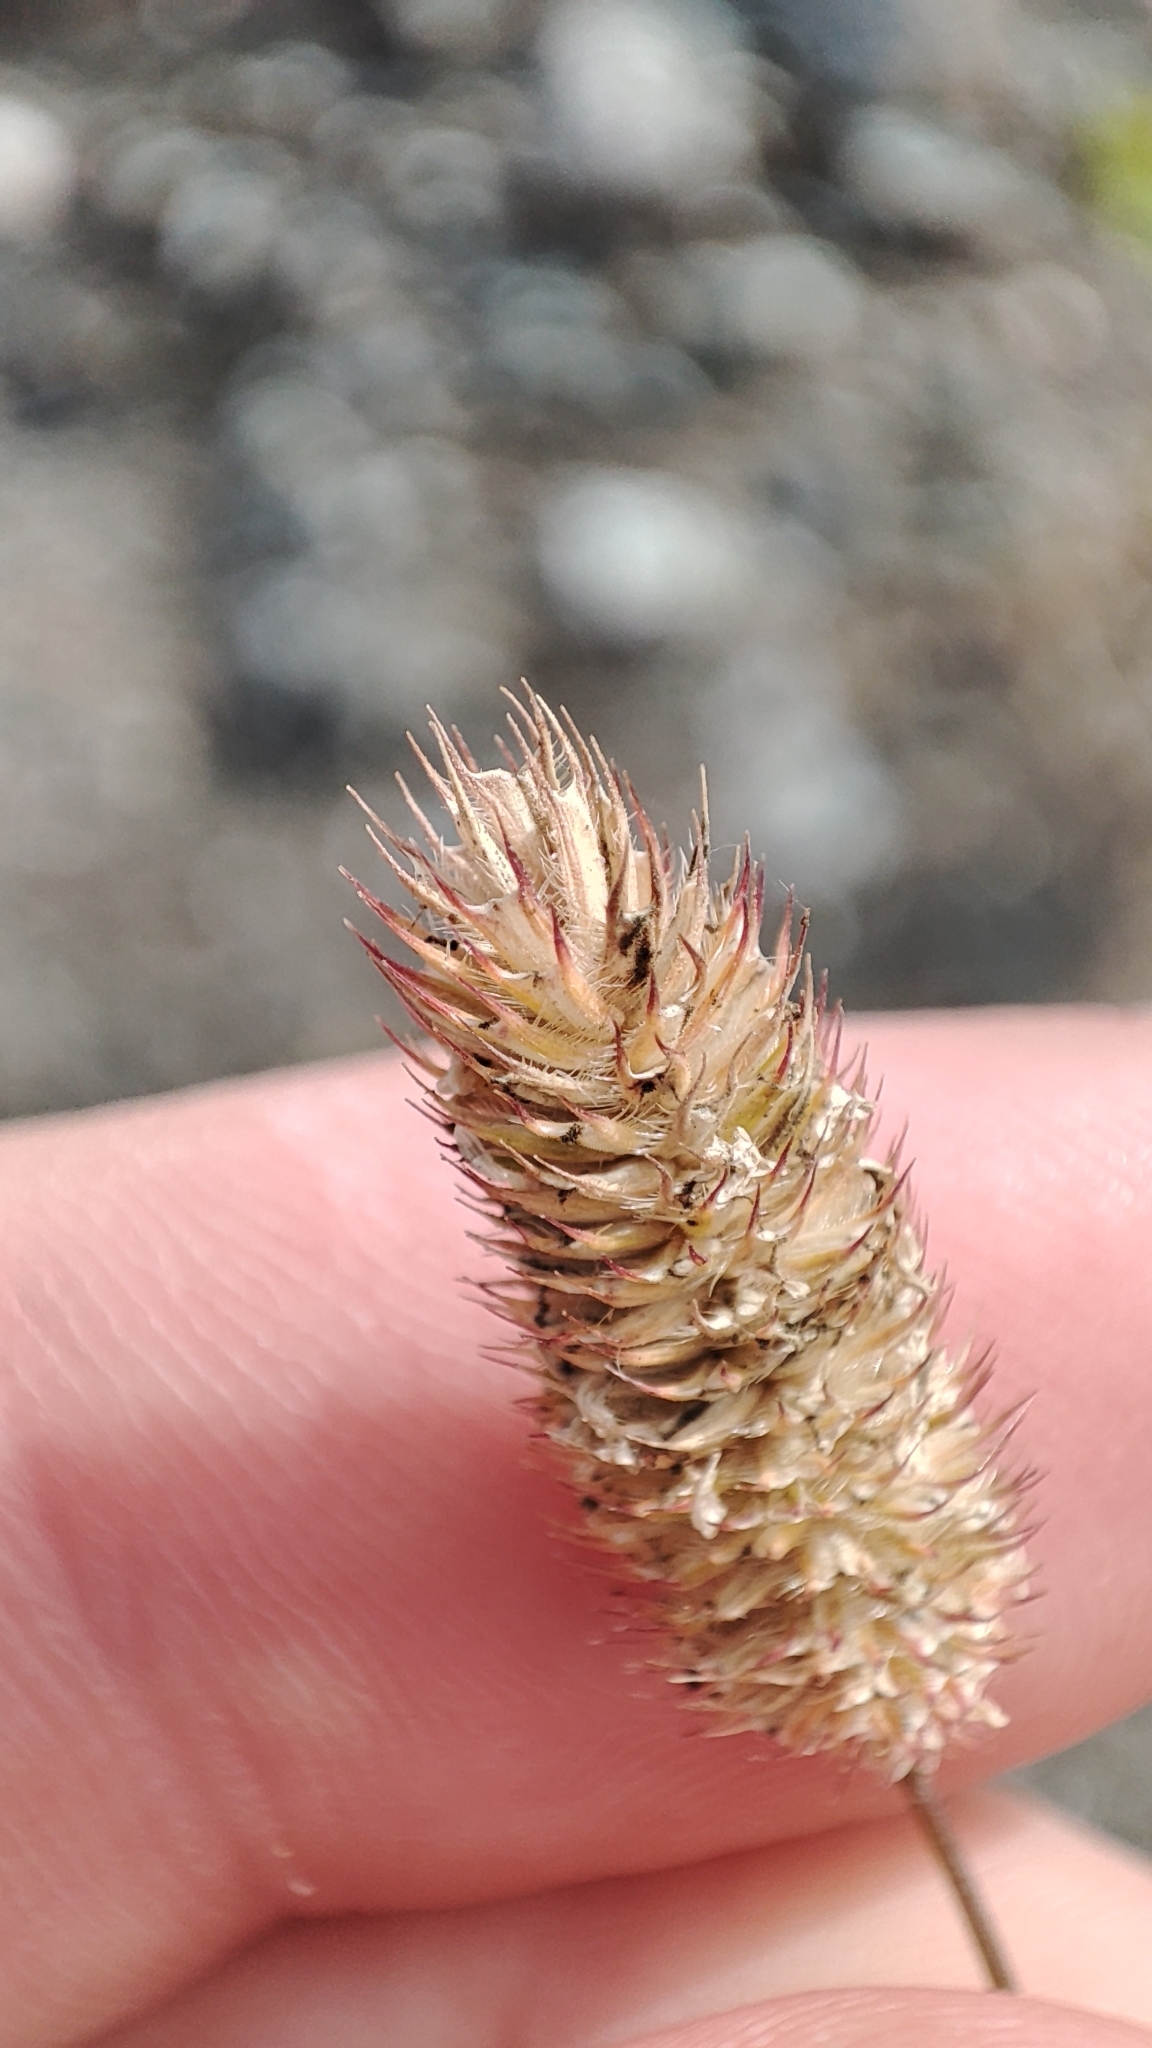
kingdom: Plantae
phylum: Tracheophyta
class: Liliopsida
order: Poales
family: Poaceae
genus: Phleum
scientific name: Phleum pratense
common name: Timothy grass
